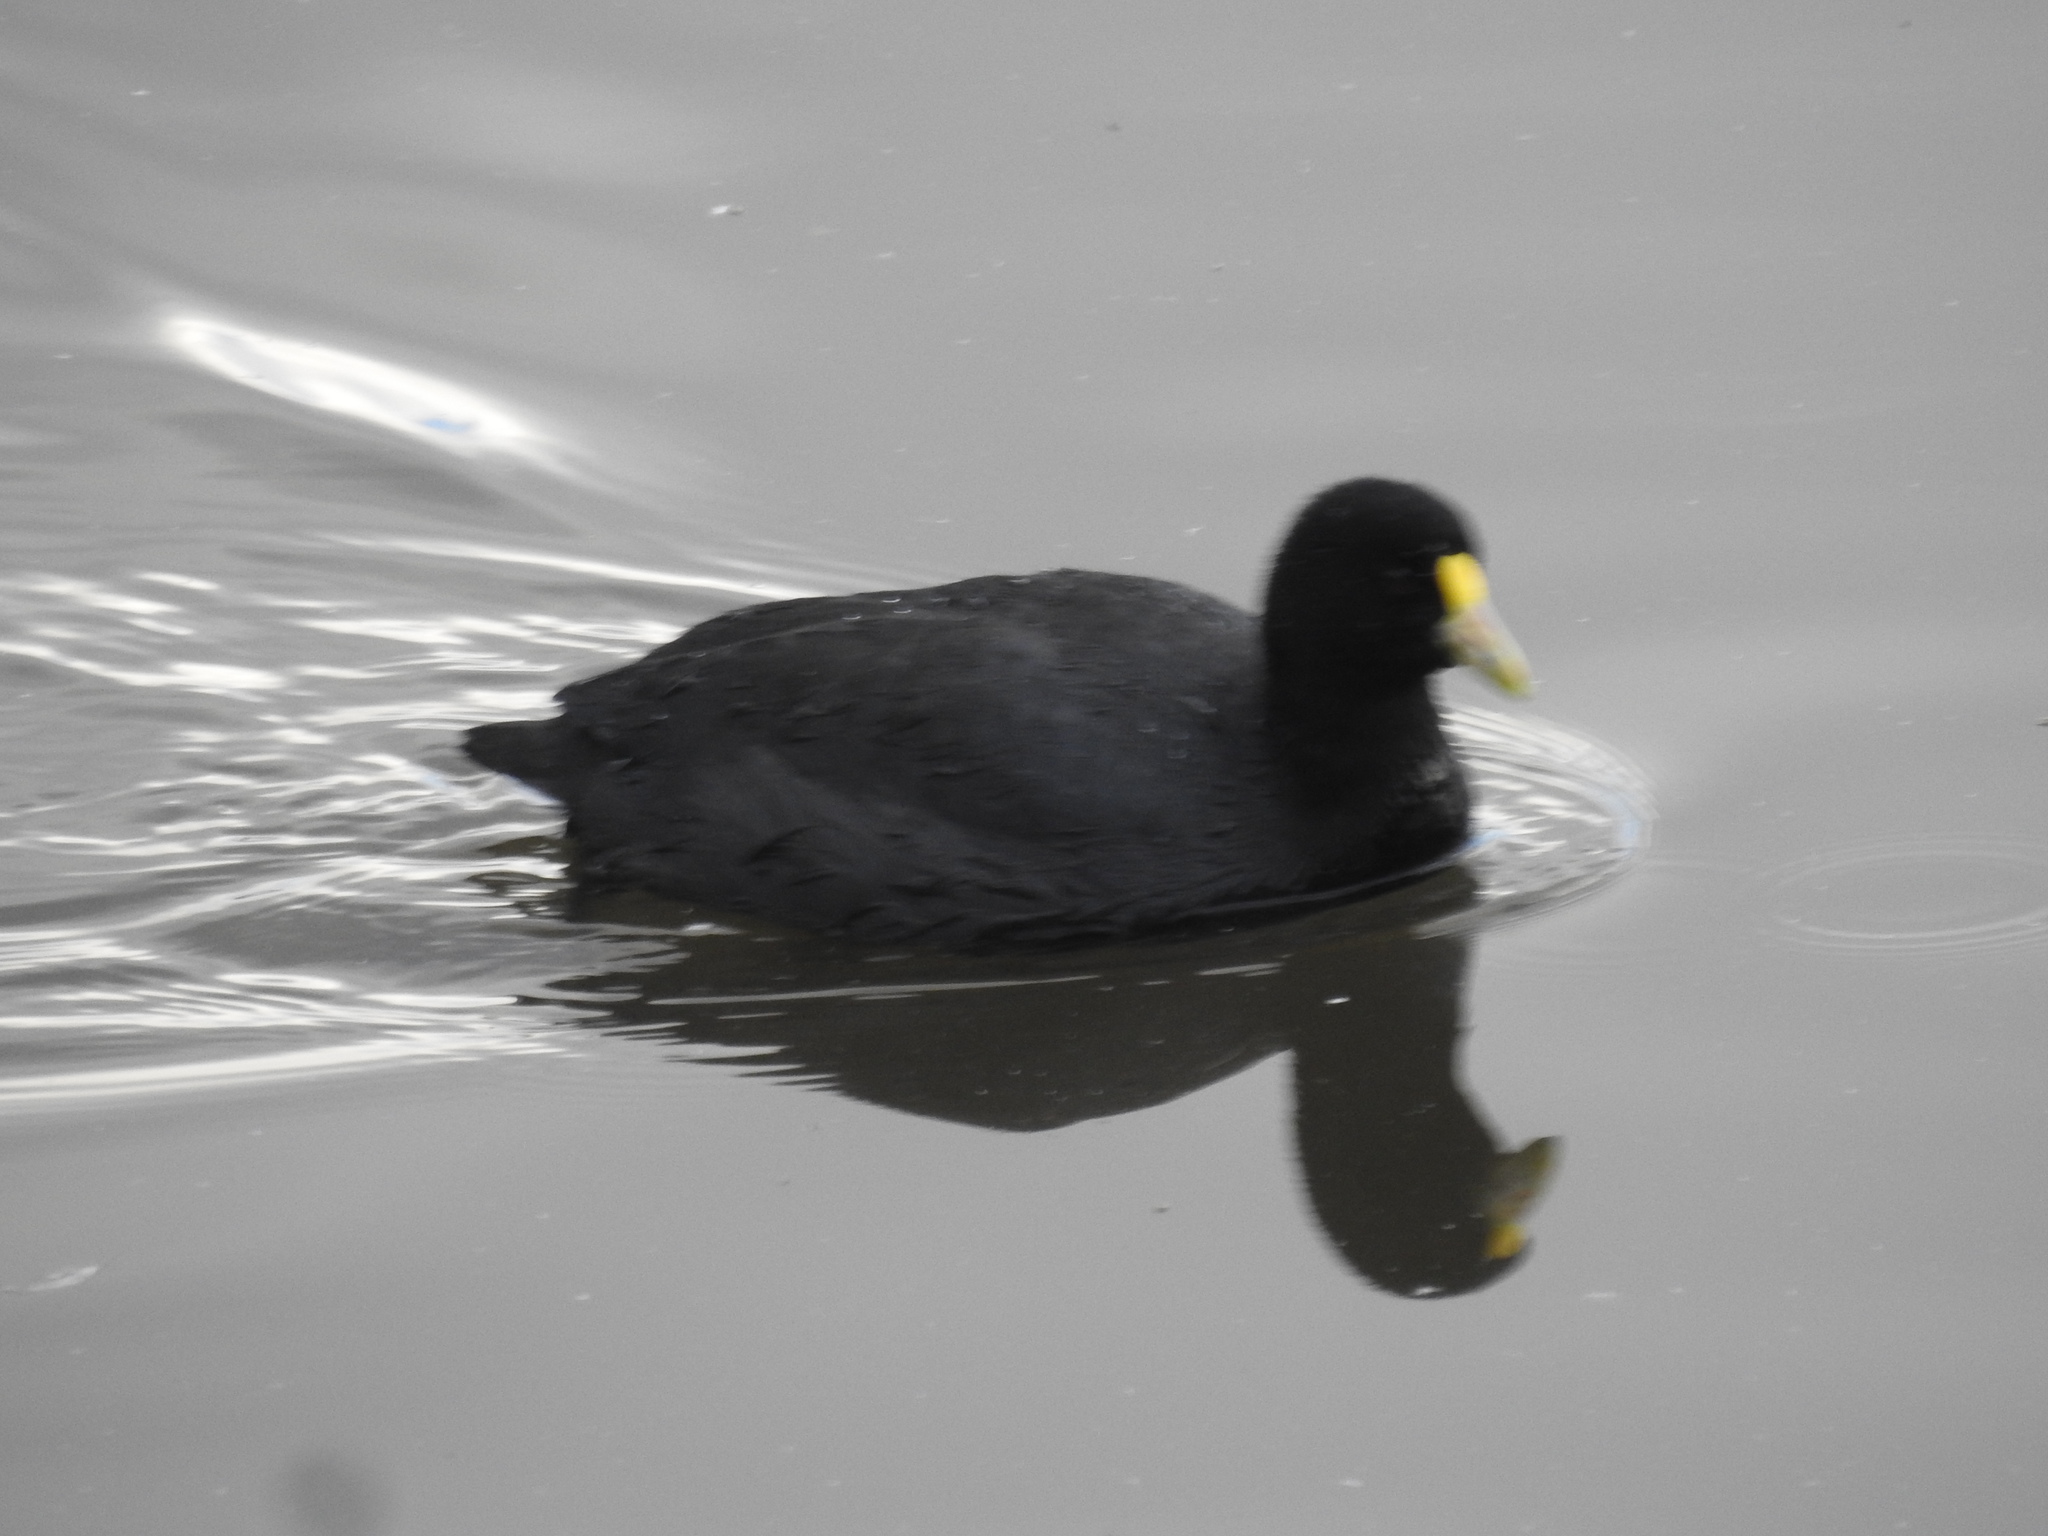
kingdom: Animalia
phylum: Chordata
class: Aves
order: Gruiformes
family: Rallidae
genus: Fulica
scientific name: Fulica leucoptera
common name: White-winged coot
